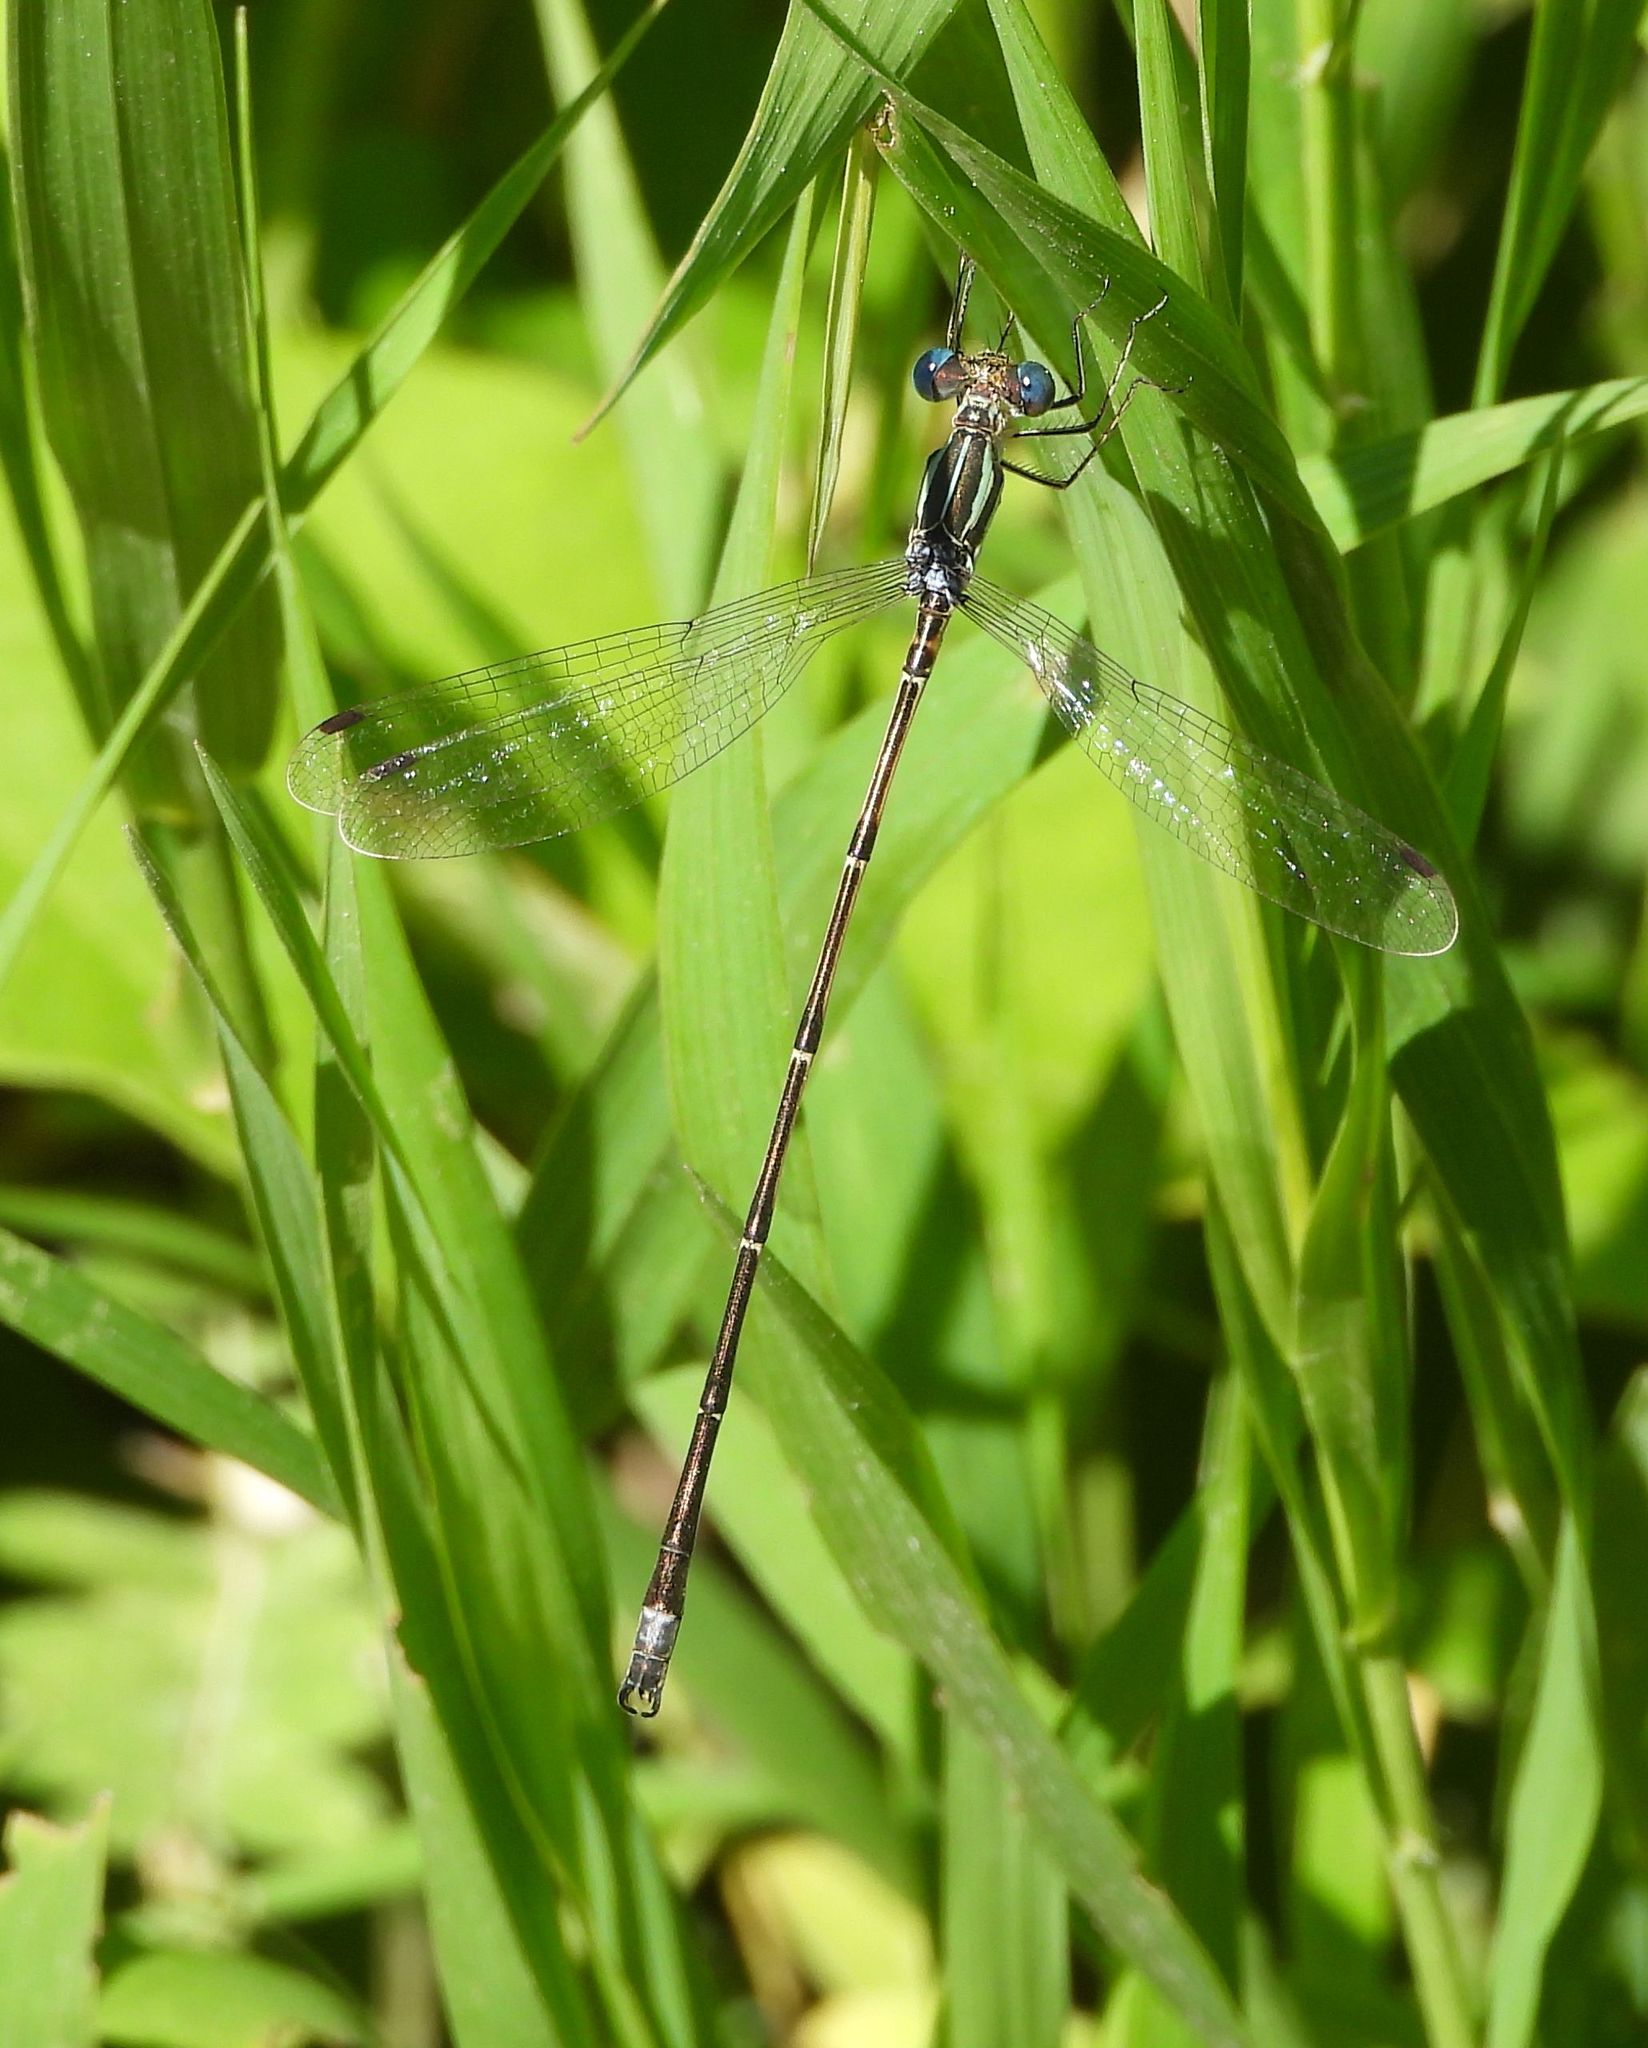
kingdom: Animalia
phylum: Arthropoda
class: Insecta
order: Odonata
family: Lestidae
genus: Lestes
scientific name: Lestes rectangularis
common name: Slender spreadwing
